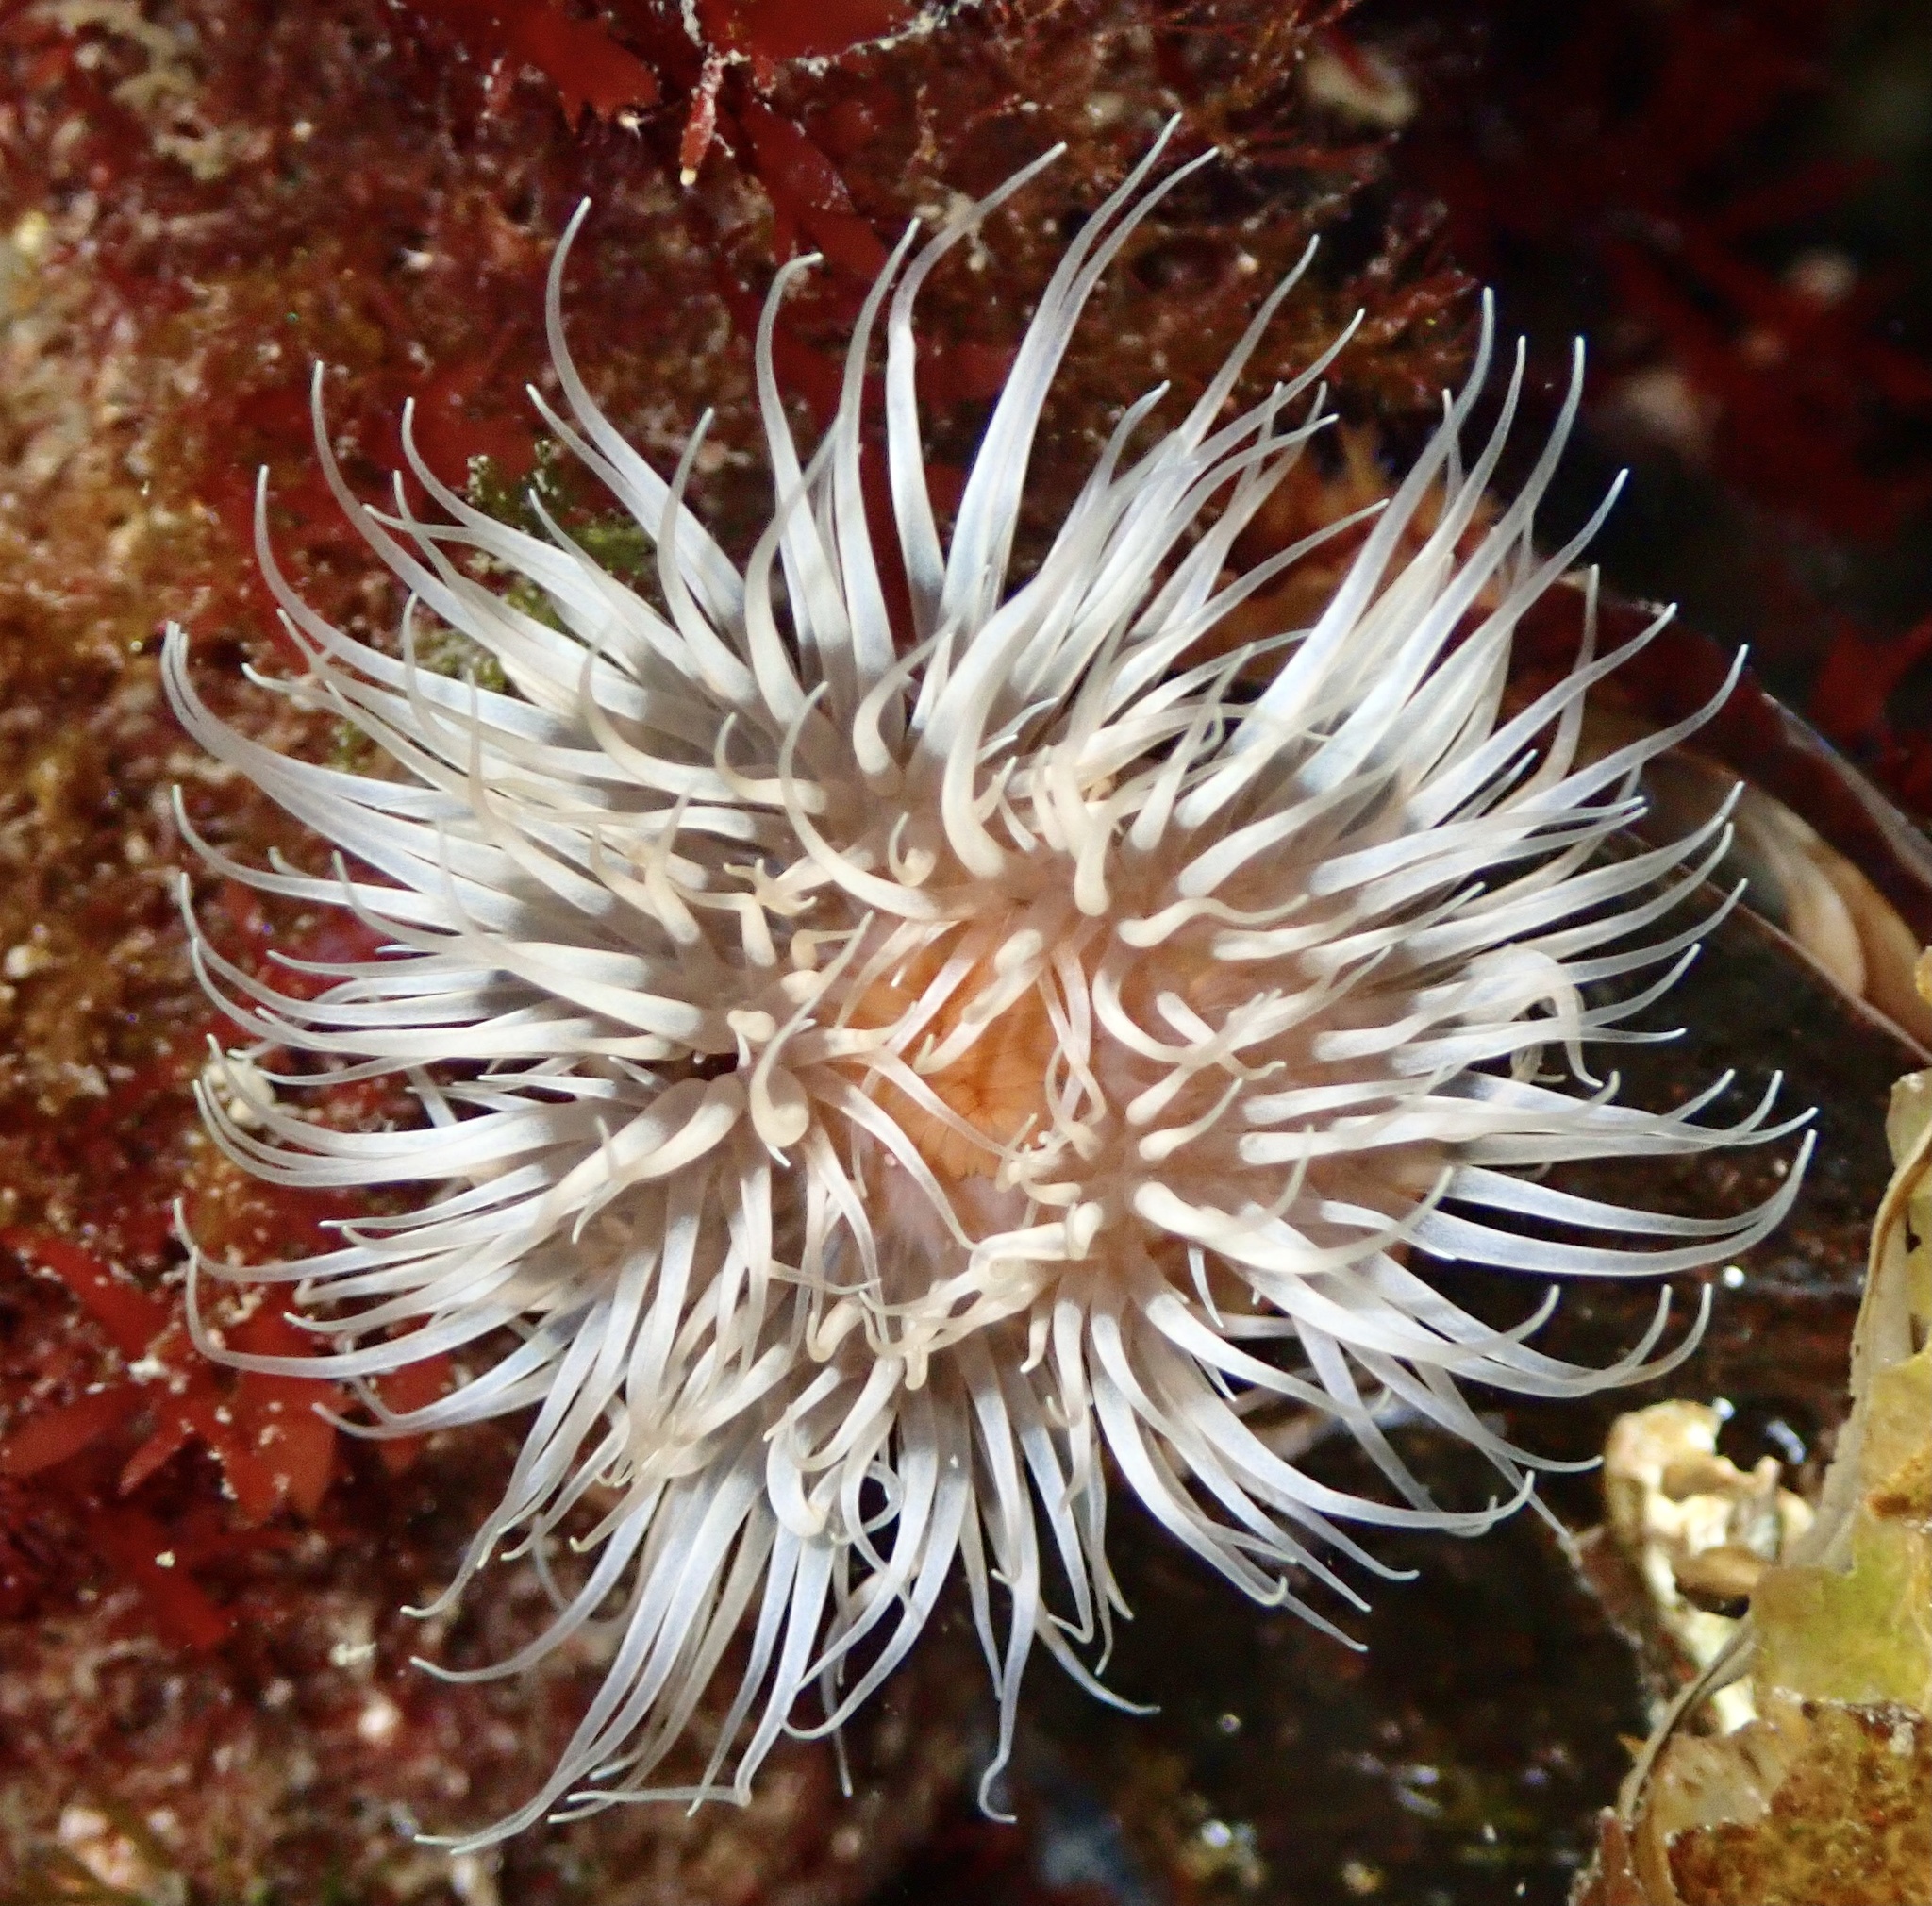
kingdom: Animalia
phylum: Cnidaria
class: Anthozoa
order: Actiniaria
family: Metridiidae
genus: Metridium
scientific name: Metridium senile
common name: Clonal plumose anemone
